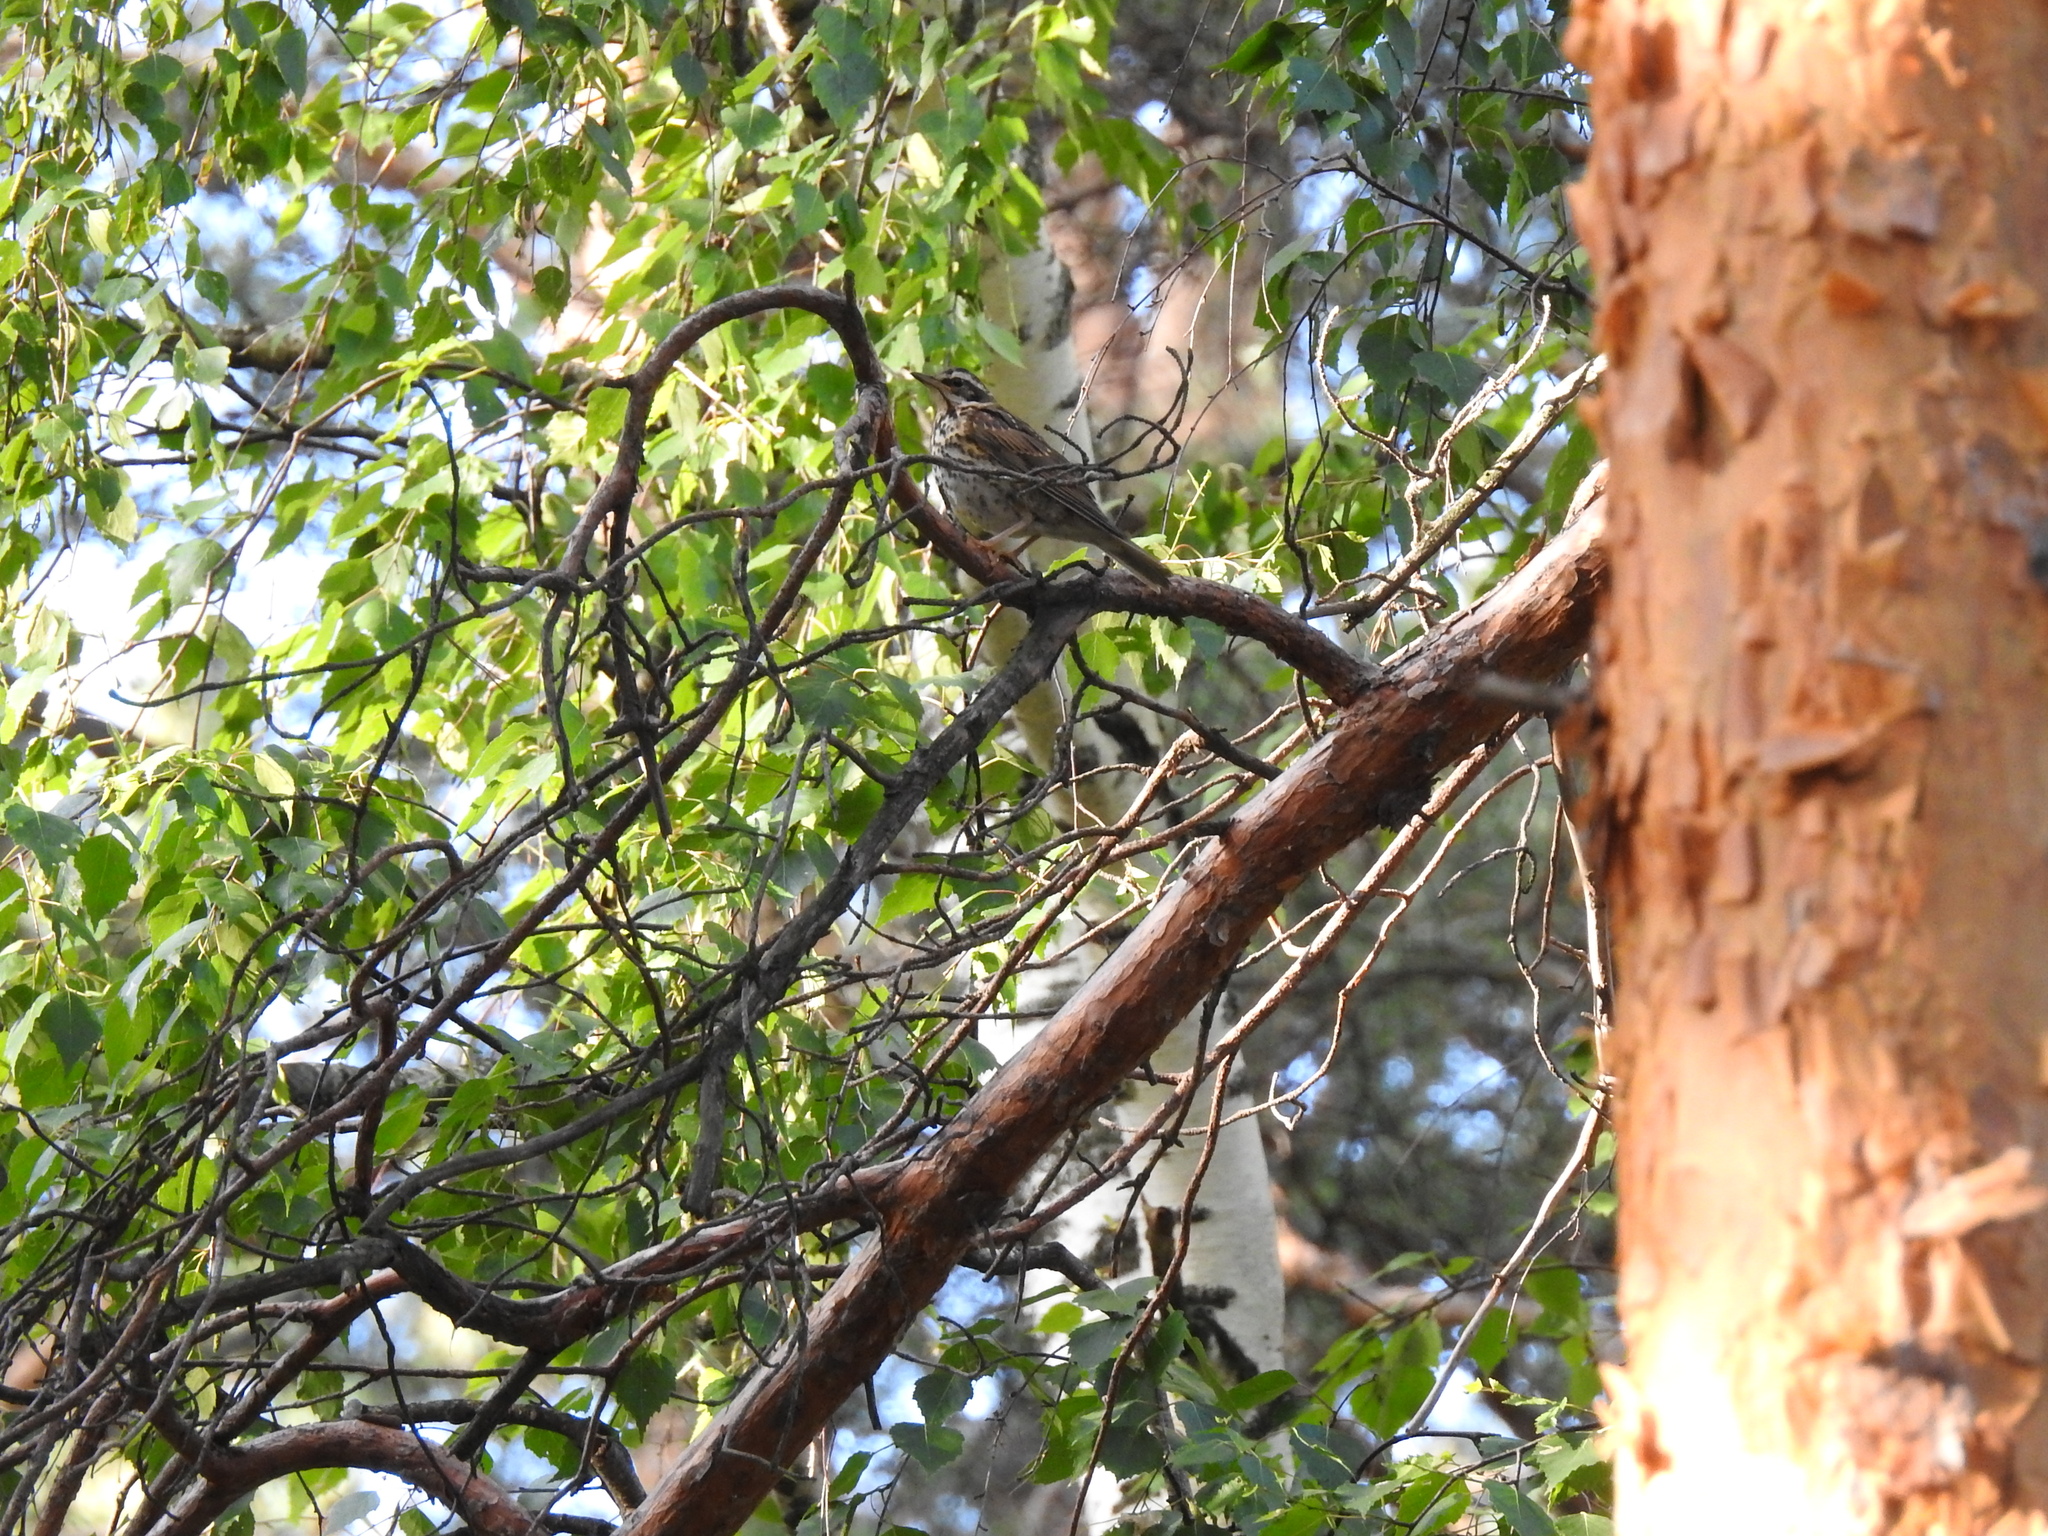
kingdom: Animalia
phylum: Chordata
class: Aves
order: Passeriformes
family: Turdidae
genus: Turdus
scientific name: Turdus iliacus
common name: Redwing
